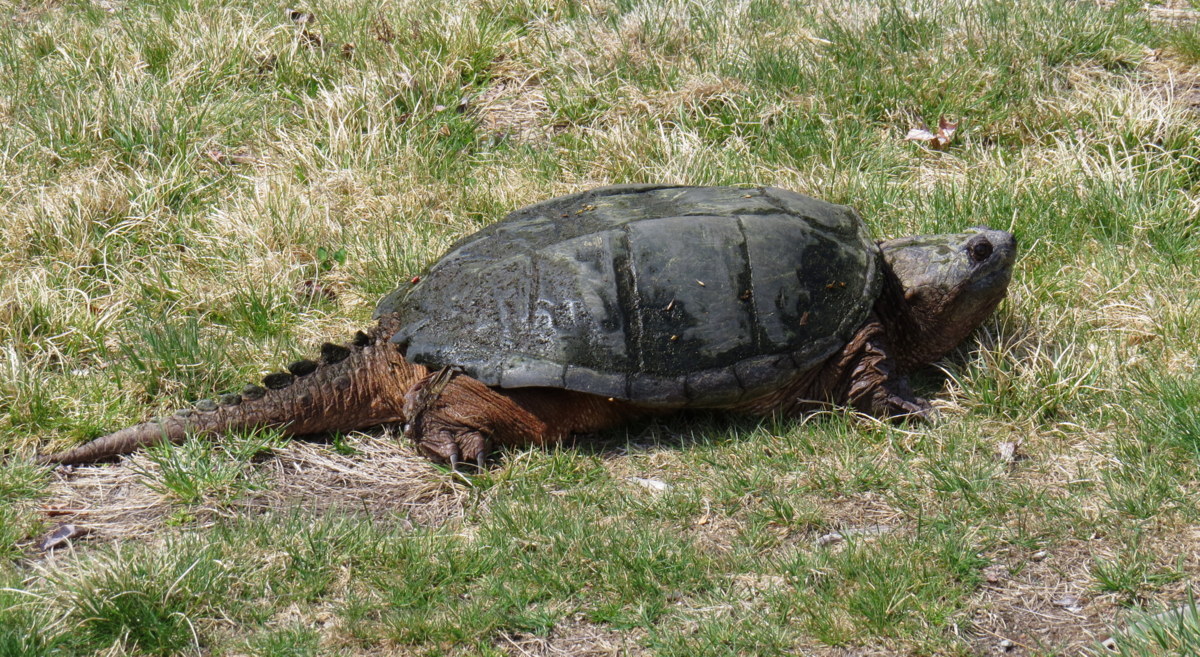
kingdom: Animalia
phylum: Chordata
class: Testudines
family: Chelydridae
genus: Chelydra
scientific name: Chelydra serpentina
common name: Common snapping turtle
